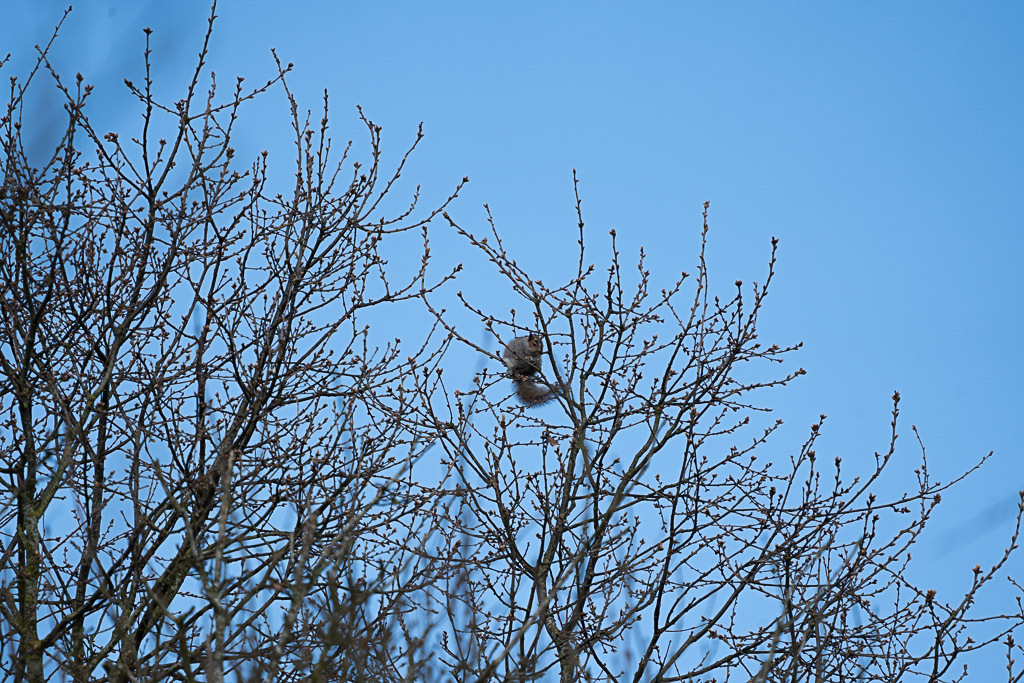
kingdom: Animalia
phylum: Chordata
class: Mammalia
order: Rodentia
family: Sciuridae
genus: Sciurus
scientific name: Sciurus carolinensis
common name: Eastern gray squirrel
